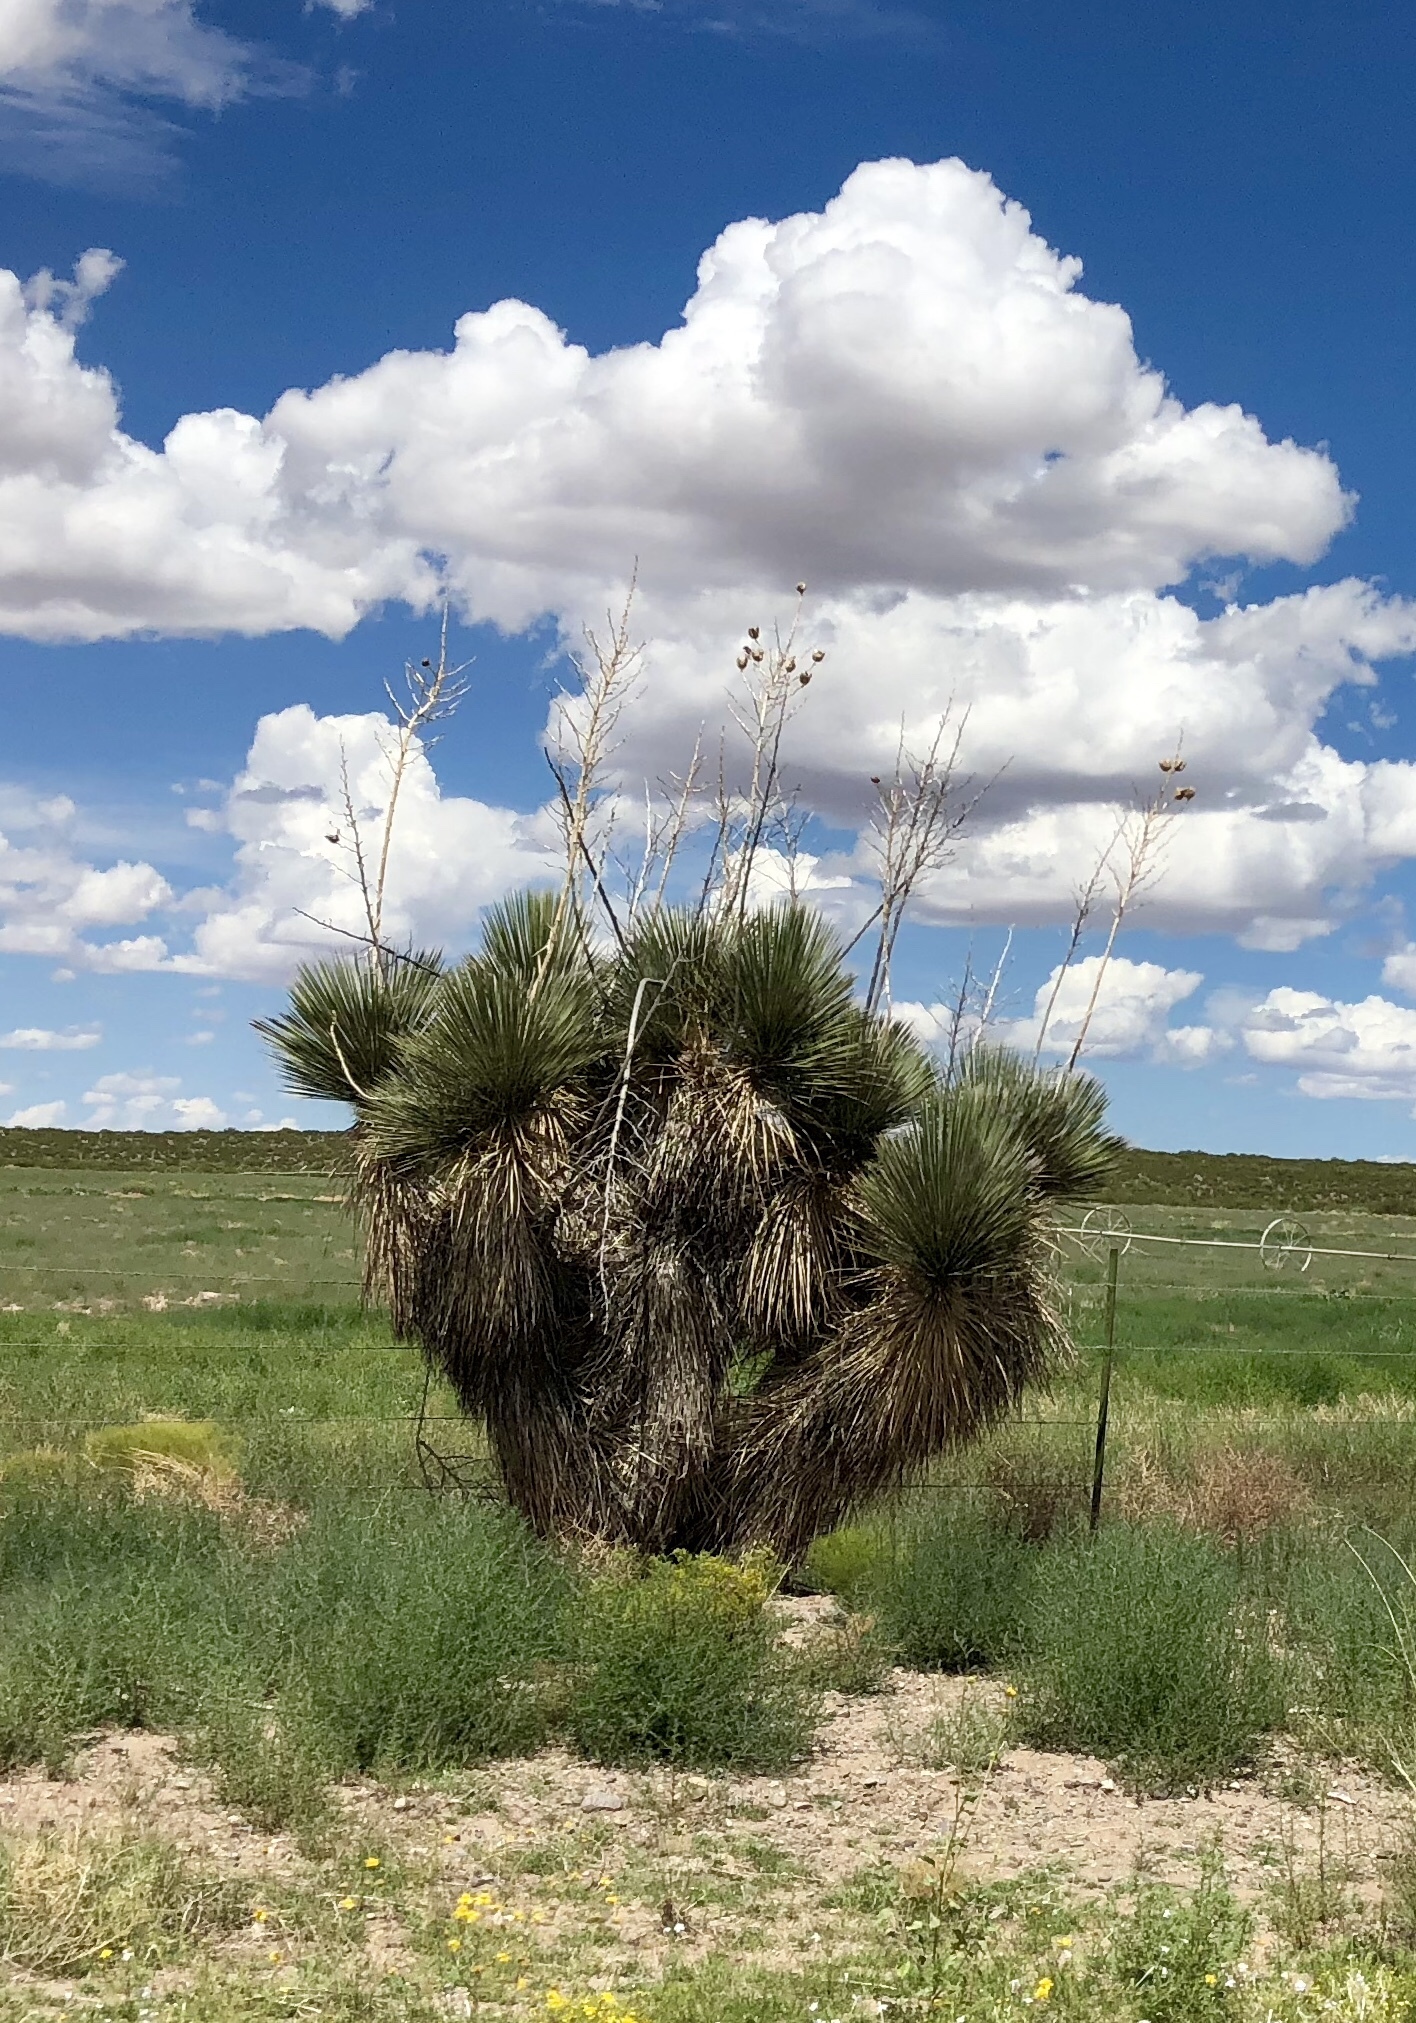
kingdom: Plantae
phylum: Tracheophyta
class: Liliopsida
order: Asparagales
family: Asparagaceae
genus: Yucca
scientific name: Yucca elata
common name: Palmella
